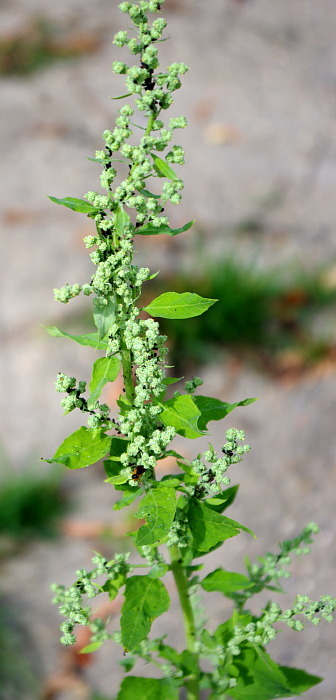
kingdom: Plantae
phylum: Tracheophyta
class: Magnoliopsida
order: Caryophyllales
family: Amaranthaceae
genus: Chenopodium
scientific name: Chenopodium album
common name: Fat-hen
